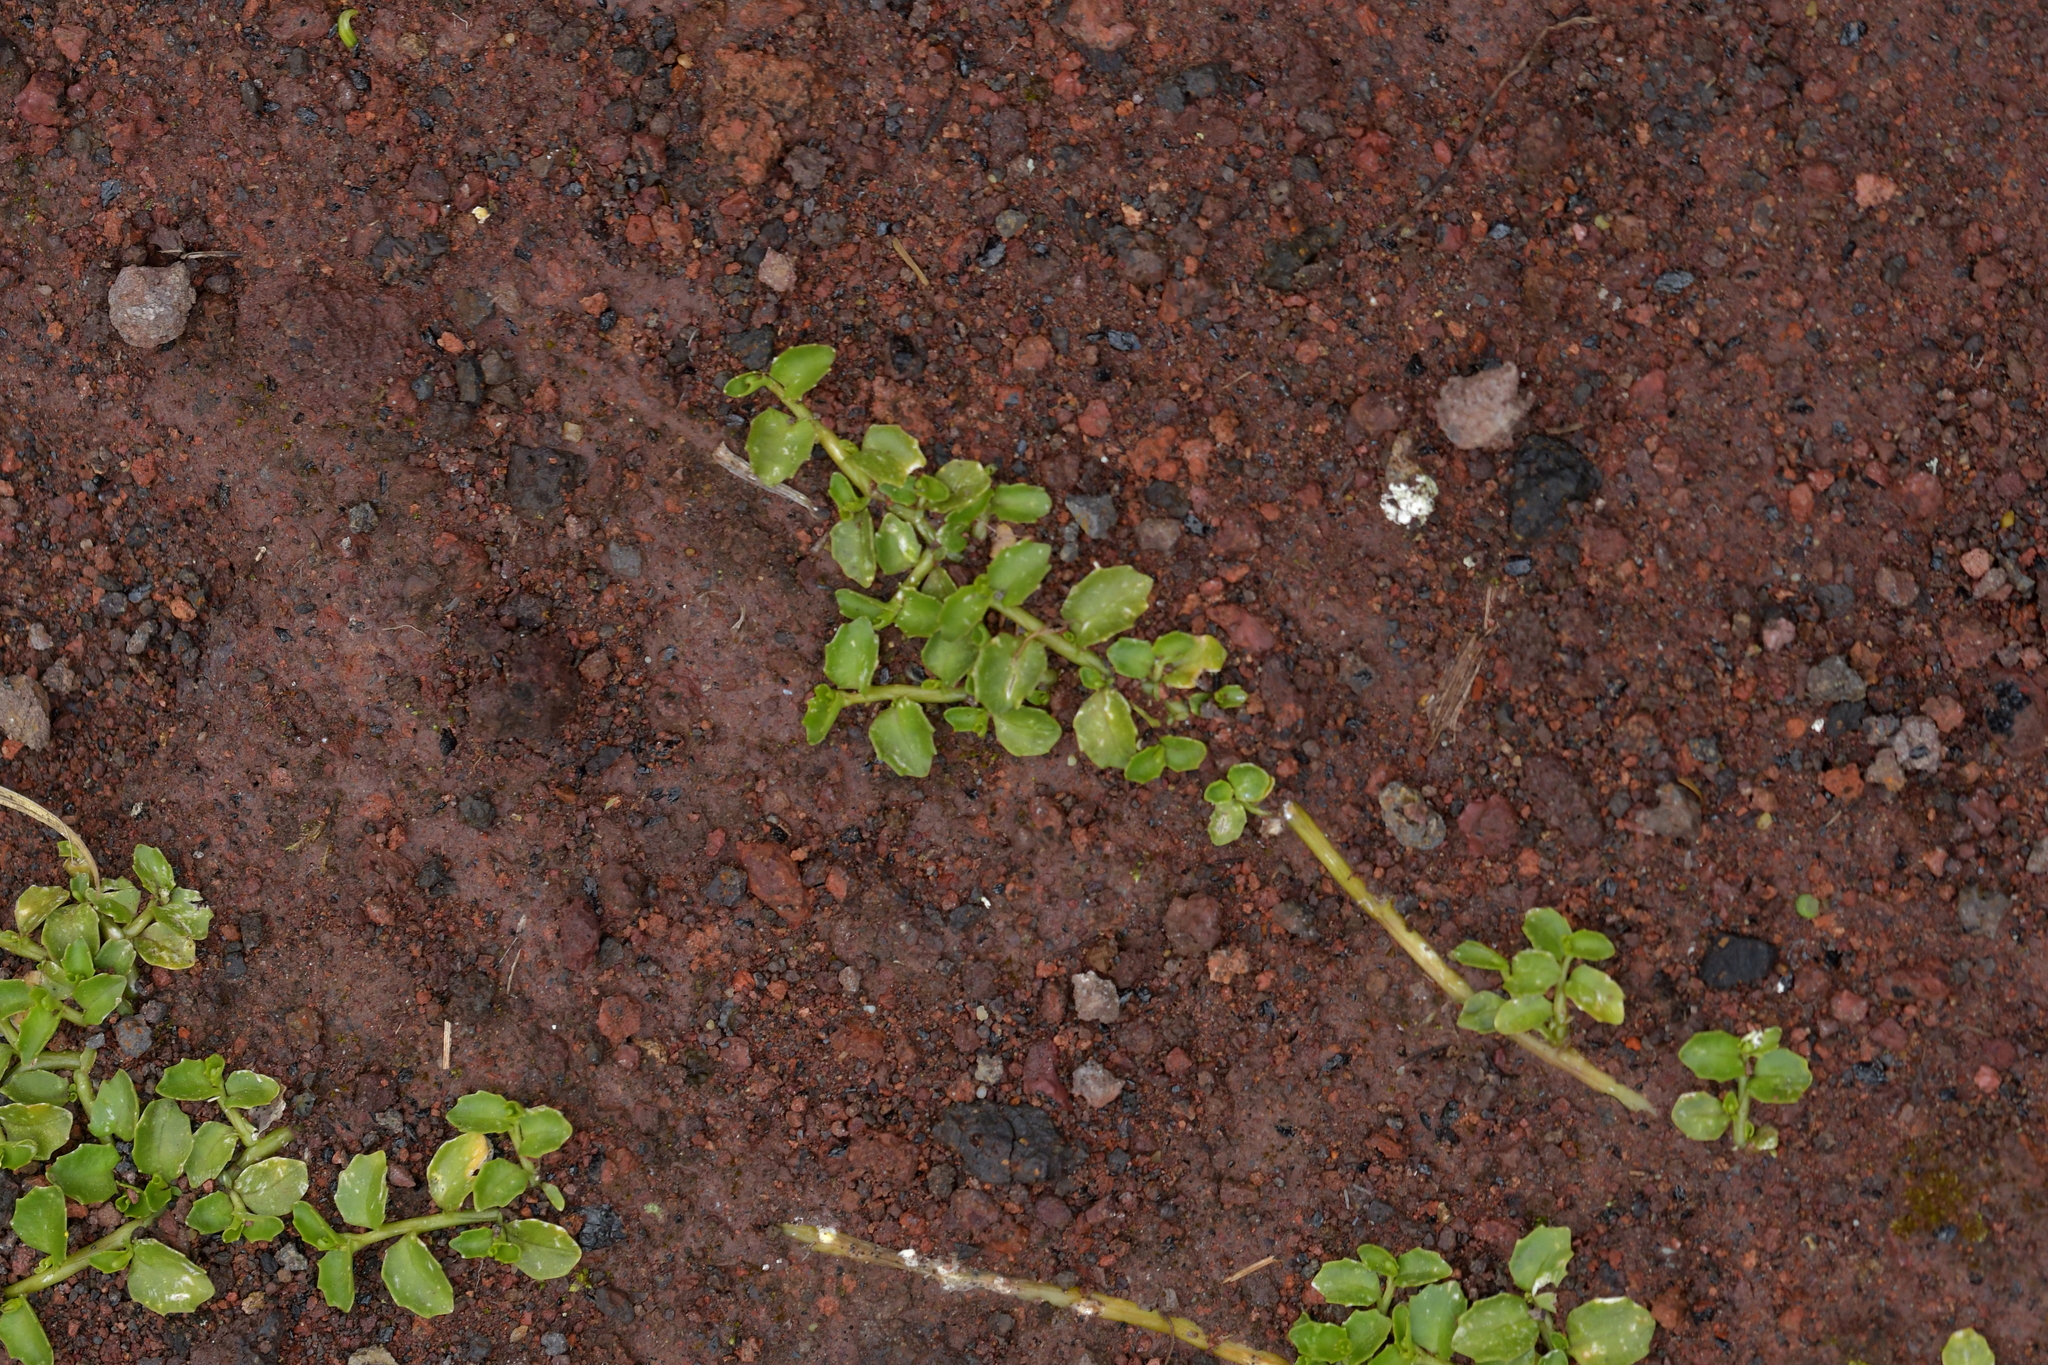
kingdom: Plantae
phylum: Tracheophyta
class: Magnoliopsida
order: Asterales
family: Campanulaceae
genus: Lobelia
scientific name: Lobelia arenaria
